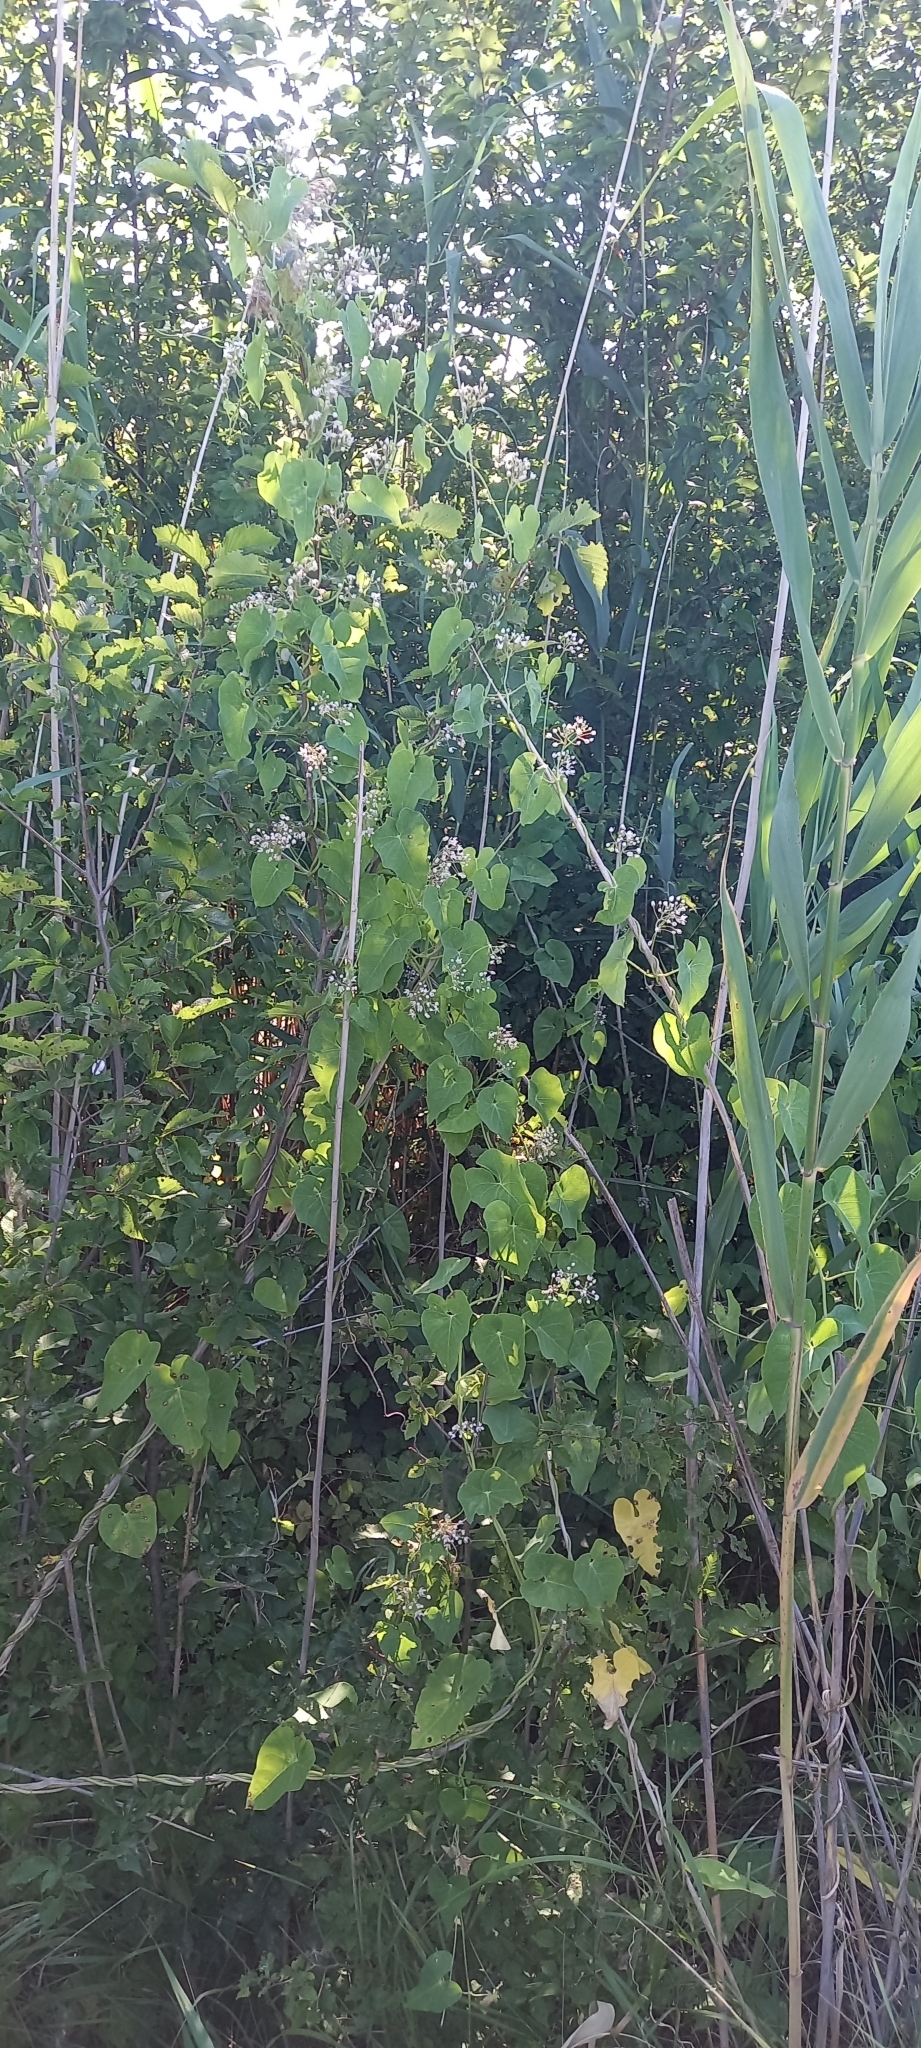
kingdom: Plantae
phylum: Tracheophyta
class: Magnoliopsida
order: Gentianales
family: Apocynaceae
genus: Cynanchum
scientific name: Cynanchum acutum
